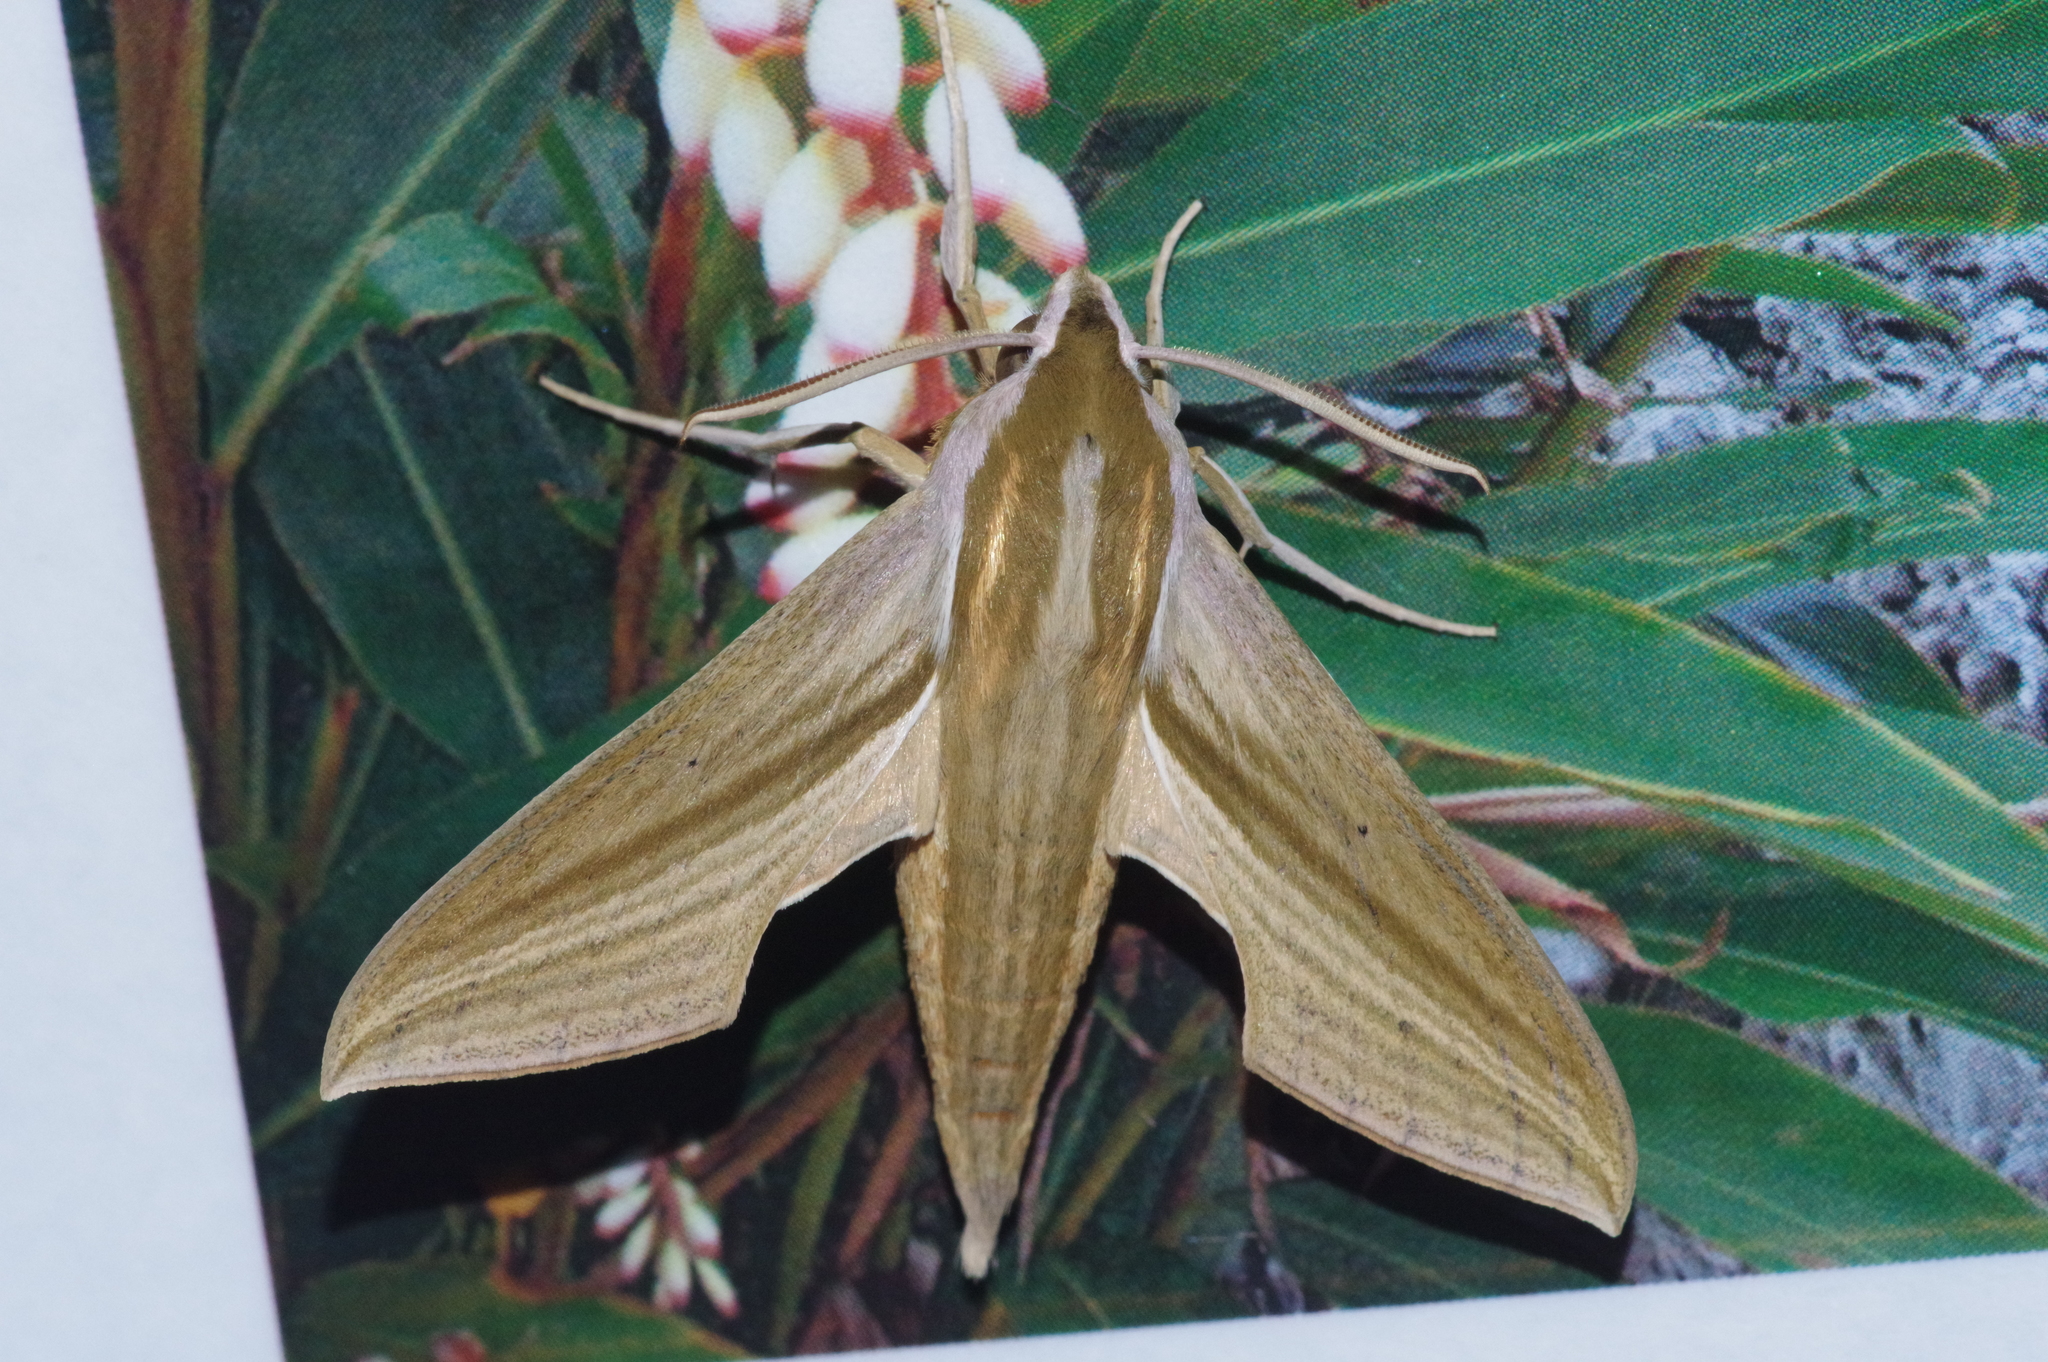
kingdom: Animalia
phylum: Arthropoda
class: Insecta
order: Lepidoptera
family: Sphingidae
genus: Theretra
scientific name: Theretra japonica
